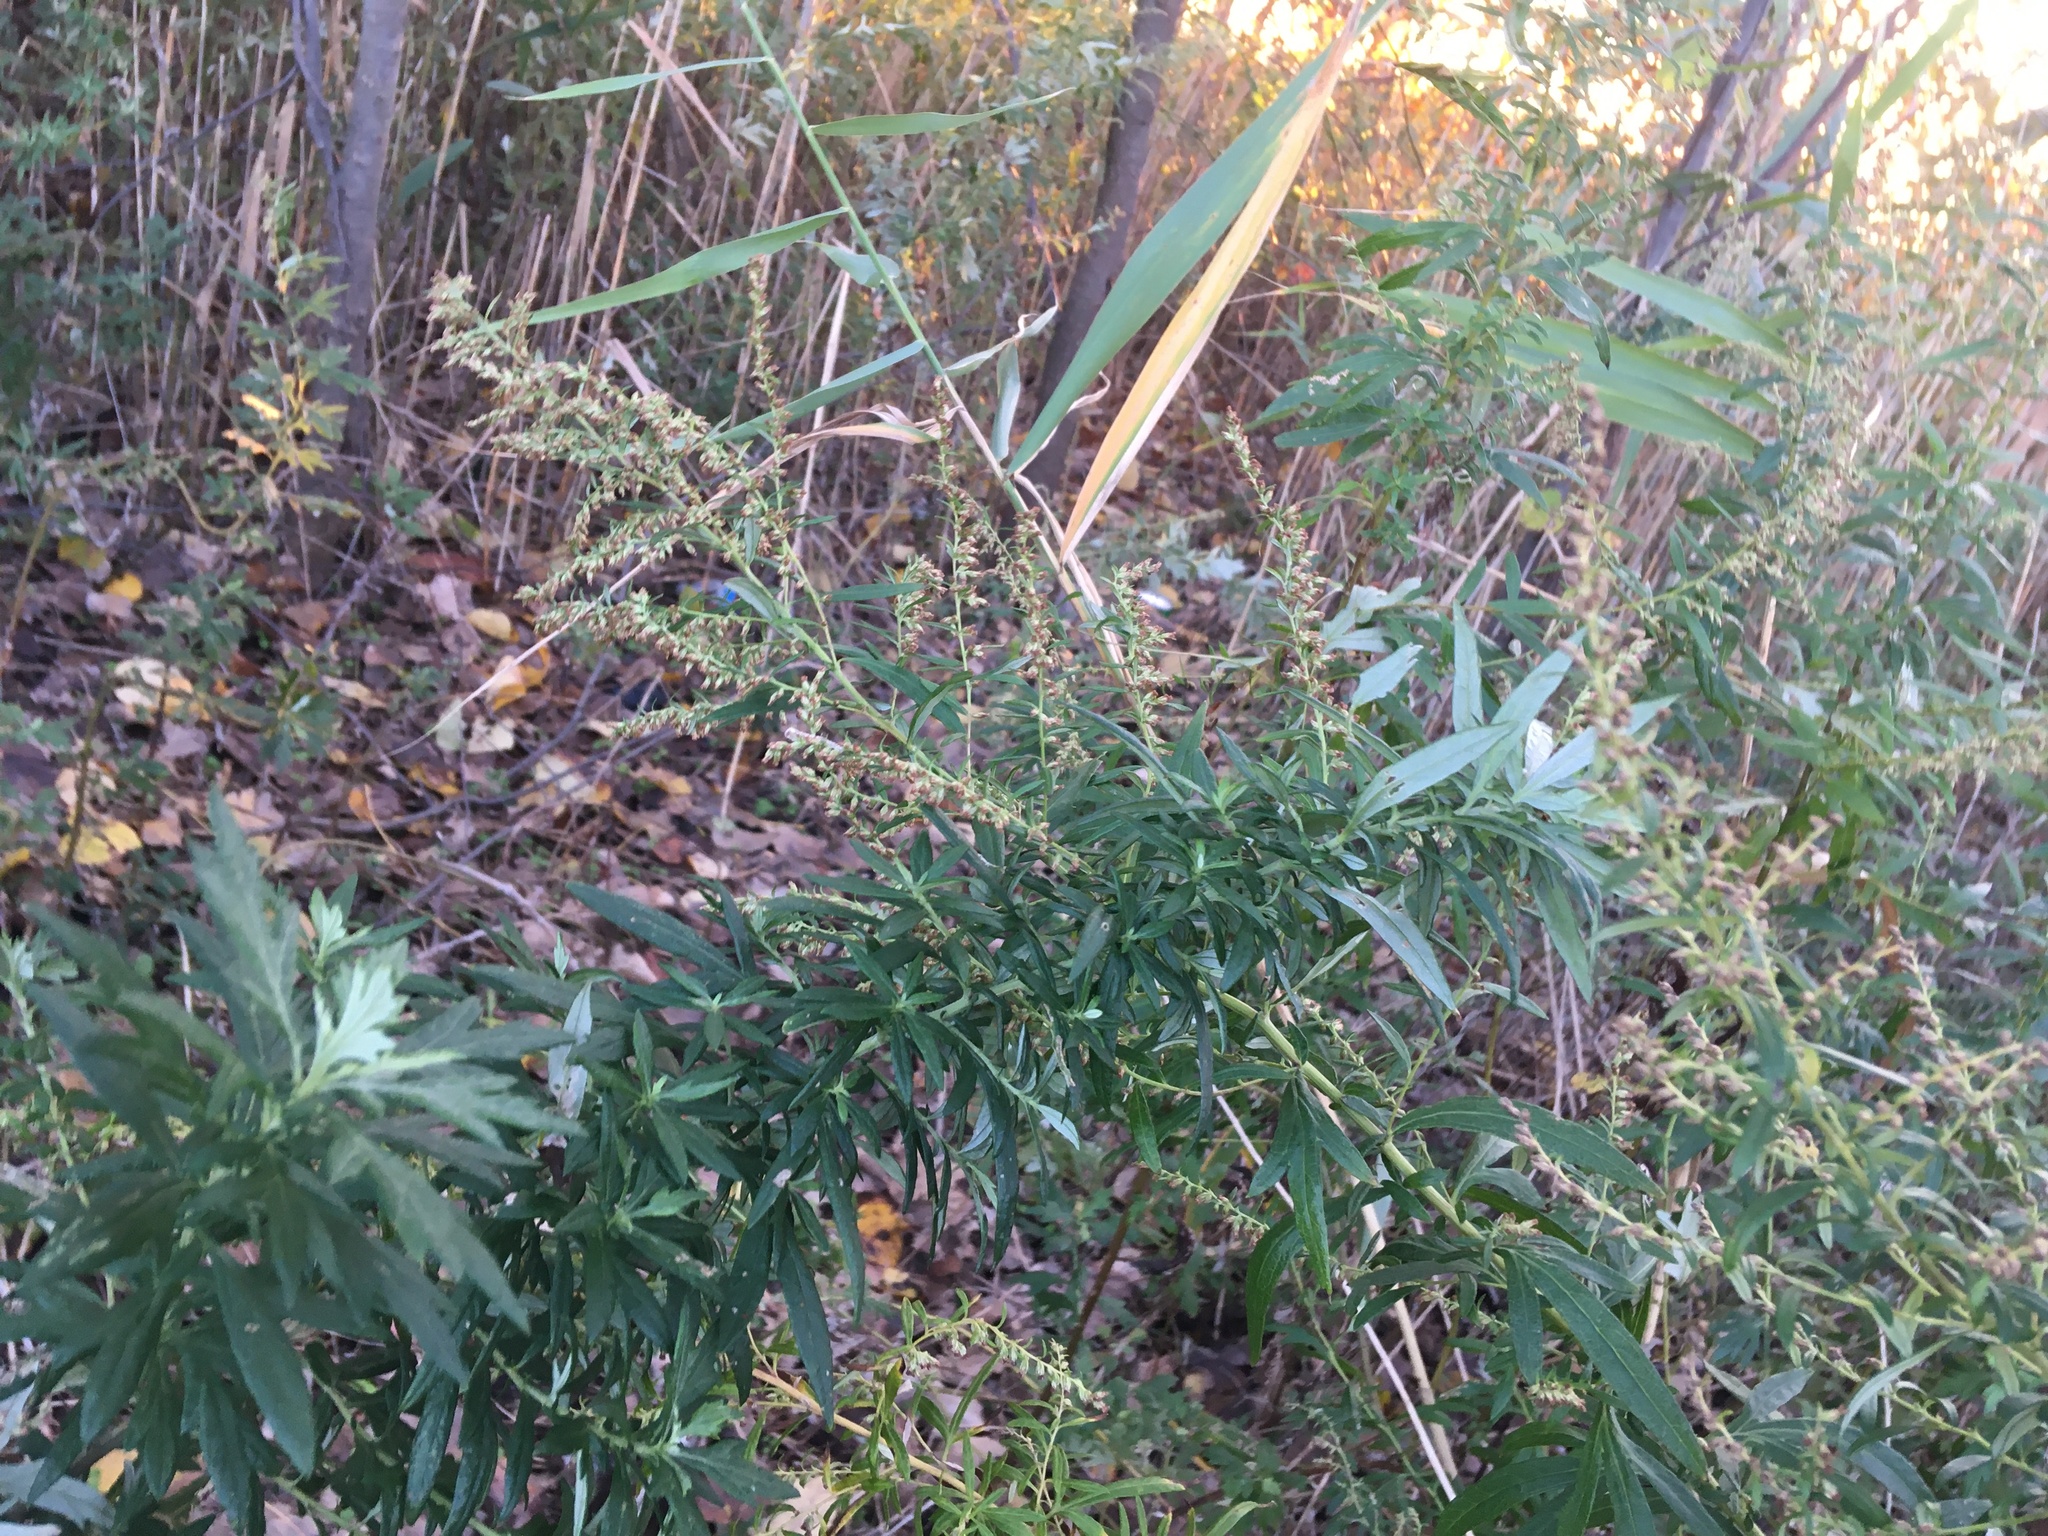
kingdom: Plantae
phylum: Tracheophyta
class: Magnoliopsida
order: Asterales
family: Asteraceae
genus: Artemisia
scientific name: Artemisia vulgaris
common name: Mugwort
